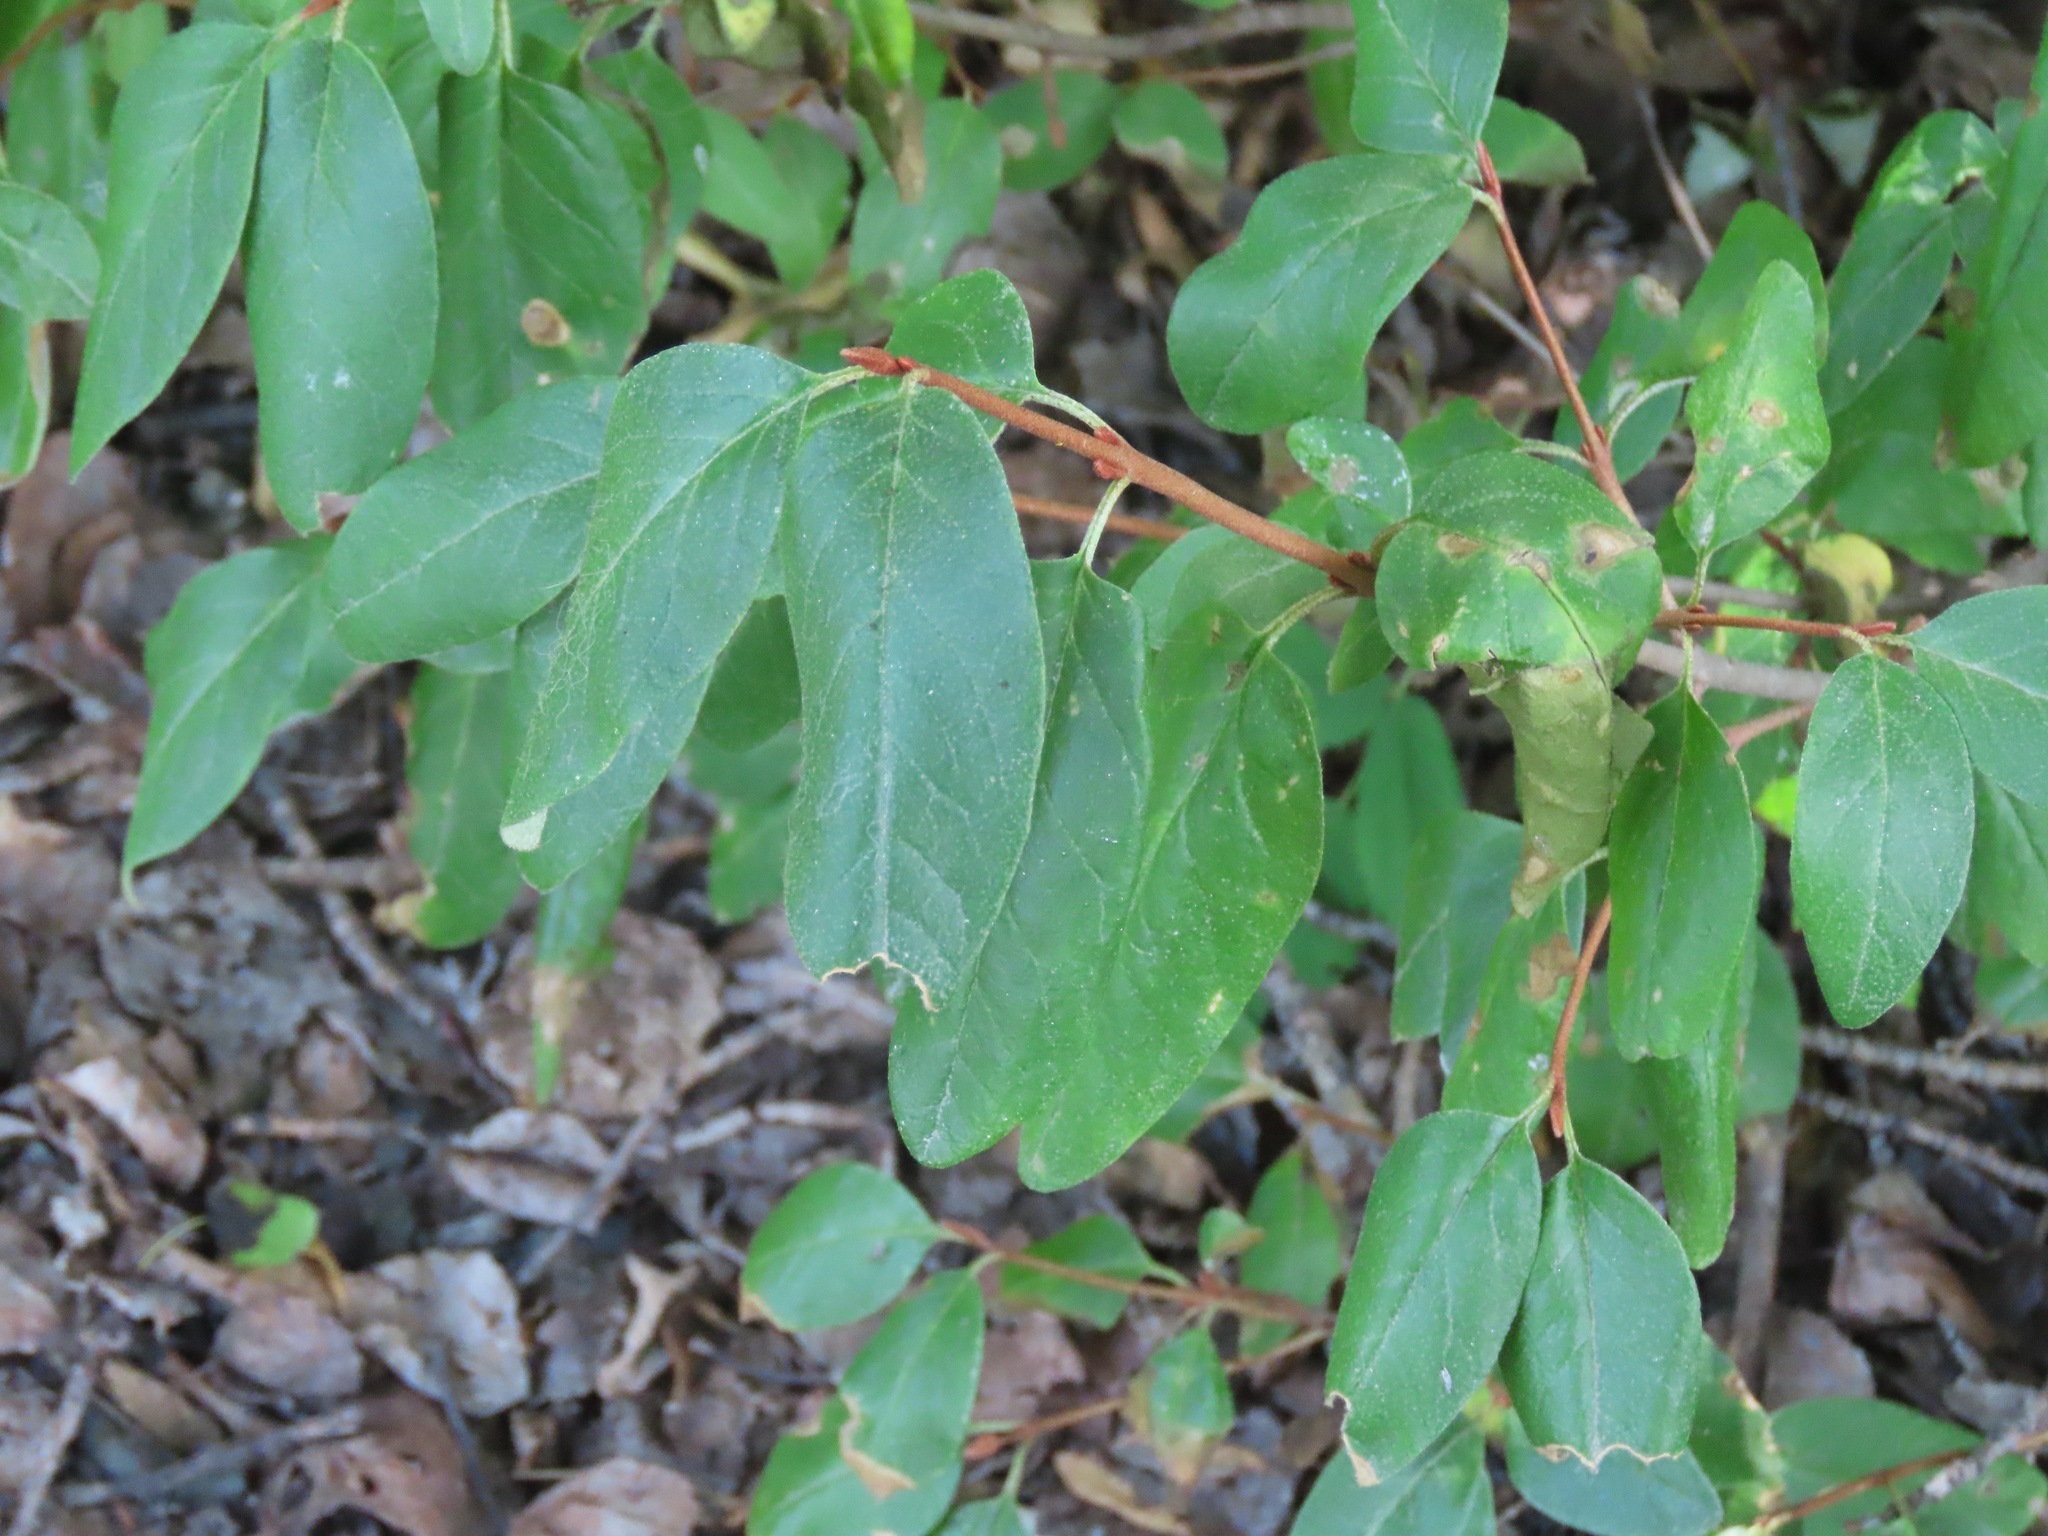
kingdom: Plantae
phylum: Tracheophyta
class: Magnoliopsida
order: Rosales
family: Elaeagnaceae
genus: Shepherdia
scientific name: Shepherdia canadensis
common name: Soapberry
